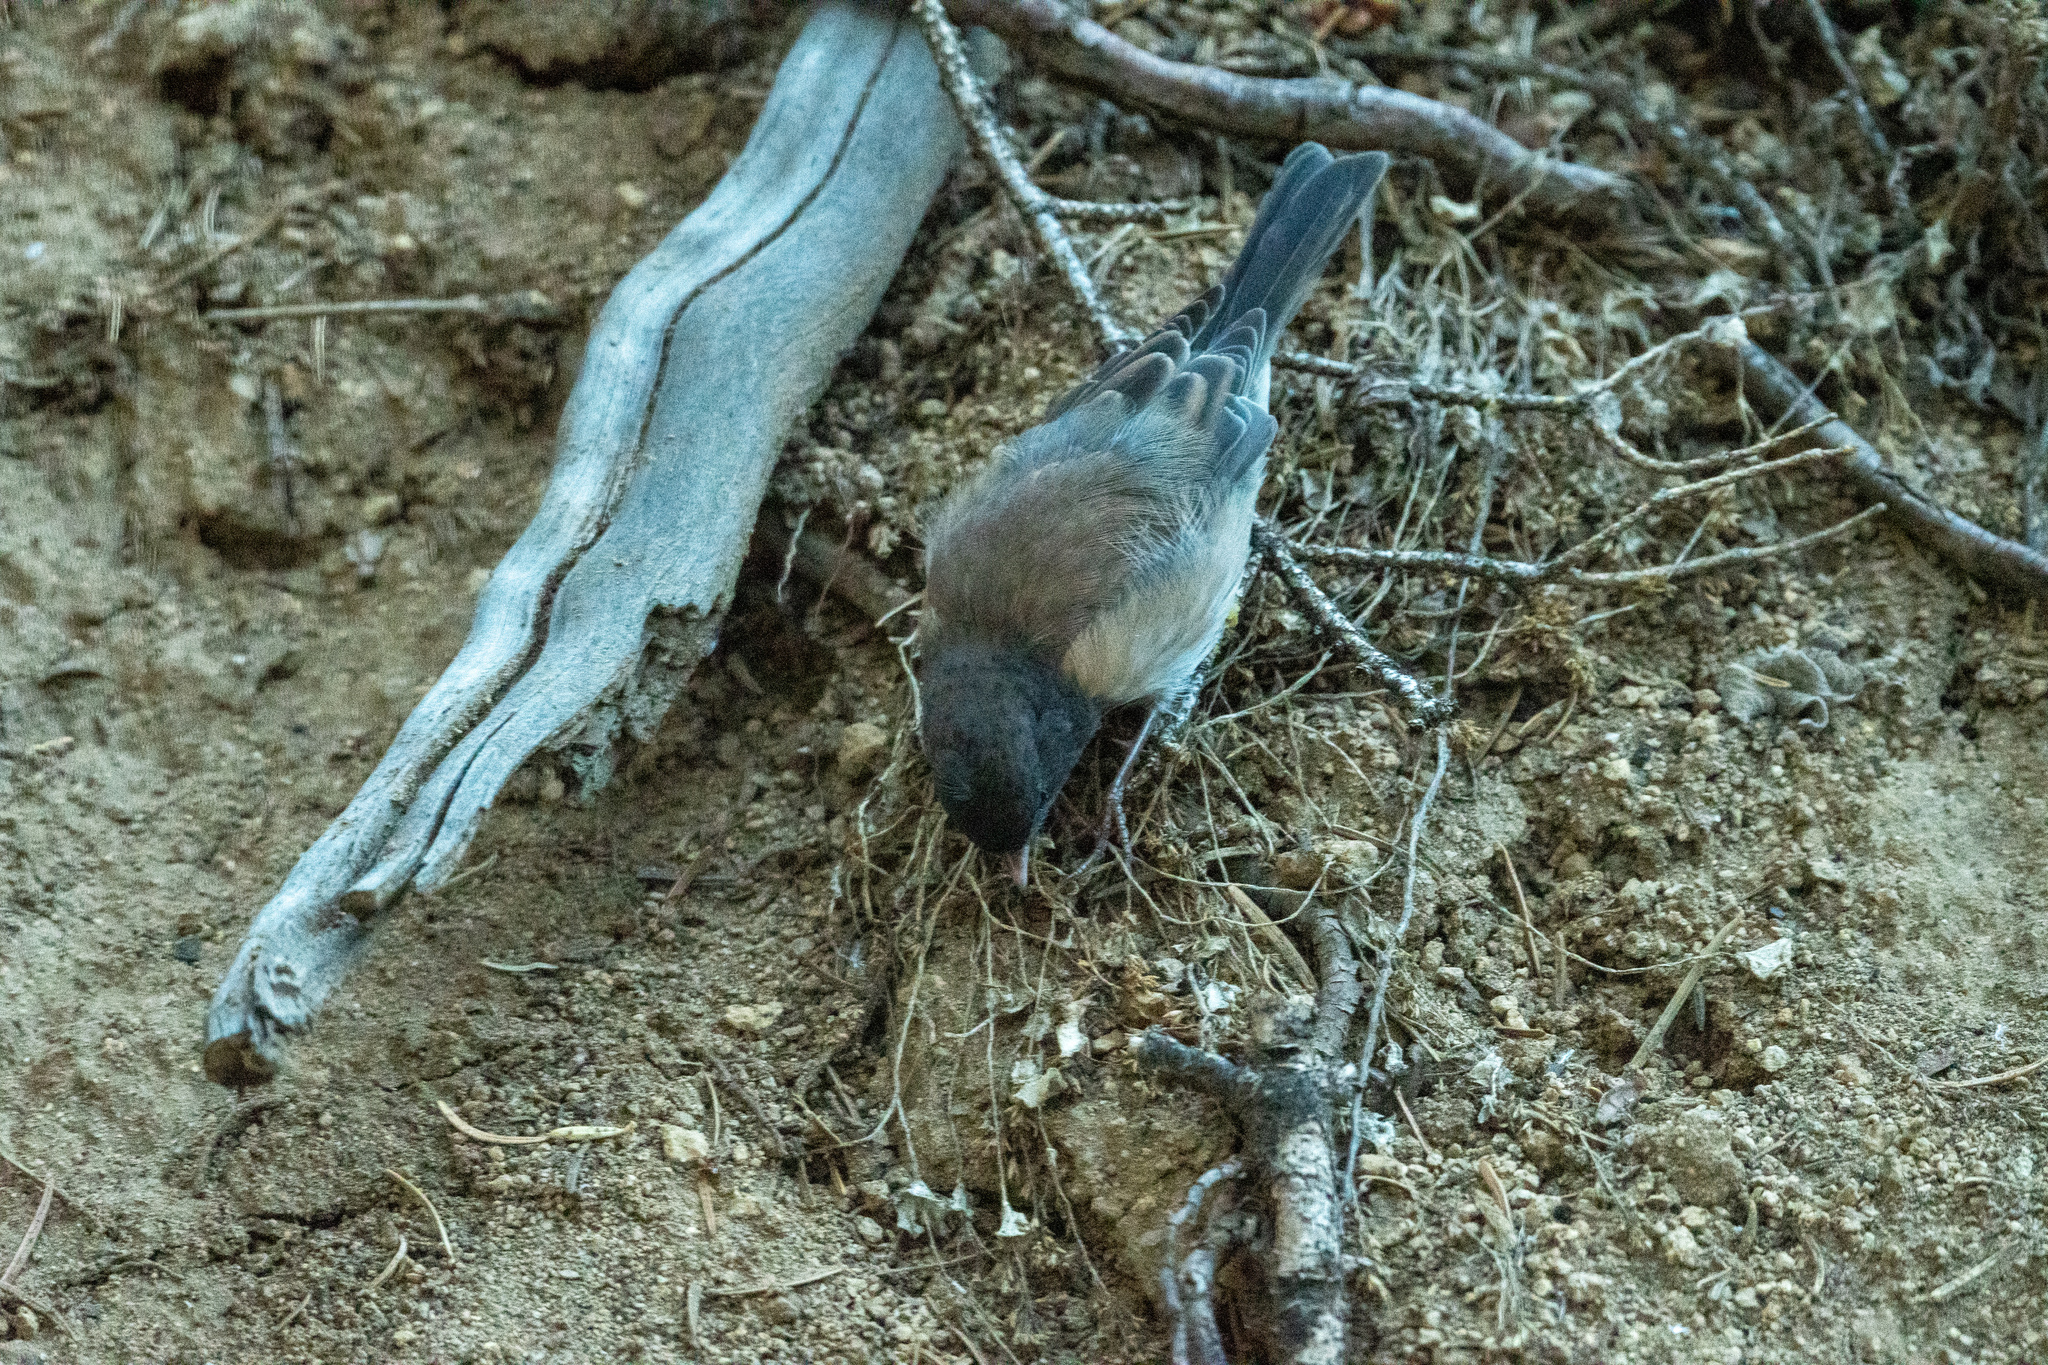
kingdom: Animalia
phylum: Chordata
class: Aves
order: Passeriformes
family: Passerellidae
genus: Junco
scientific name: Junco hyemalis
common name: Dark-eyed junco
